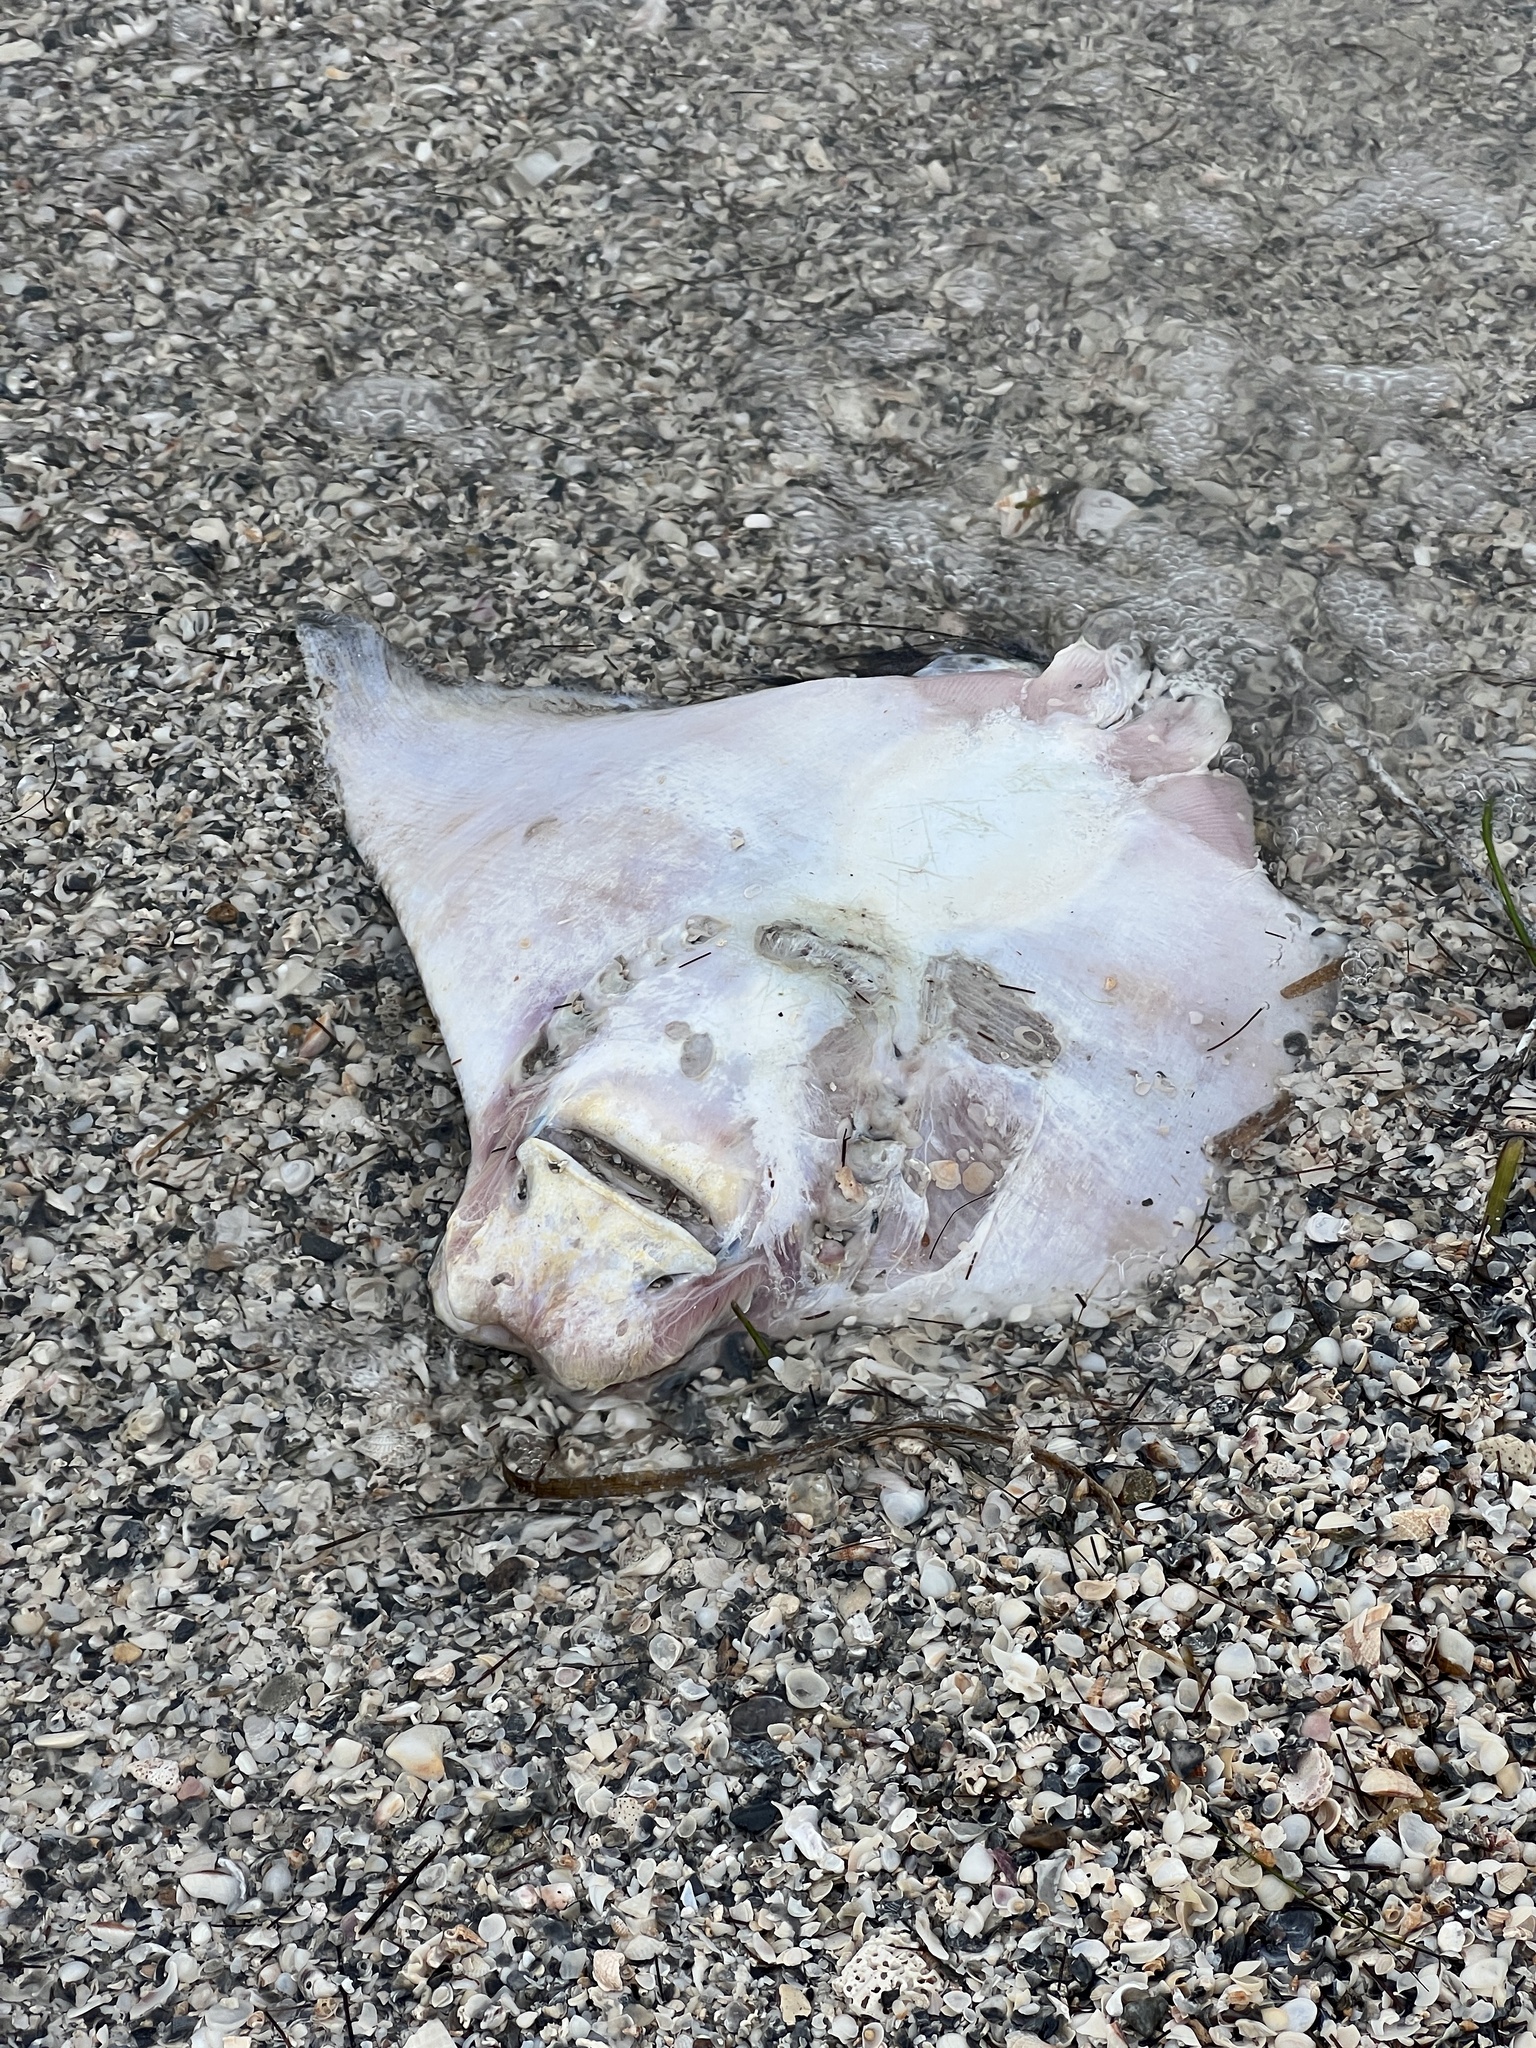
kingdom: Animalia
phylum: Chordata
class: Elasmobranchii
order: Myliobatiformes
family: Myliobatidae
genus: Rhinoptera
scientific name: Rhinoptera bonasus
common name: Cownose ray
